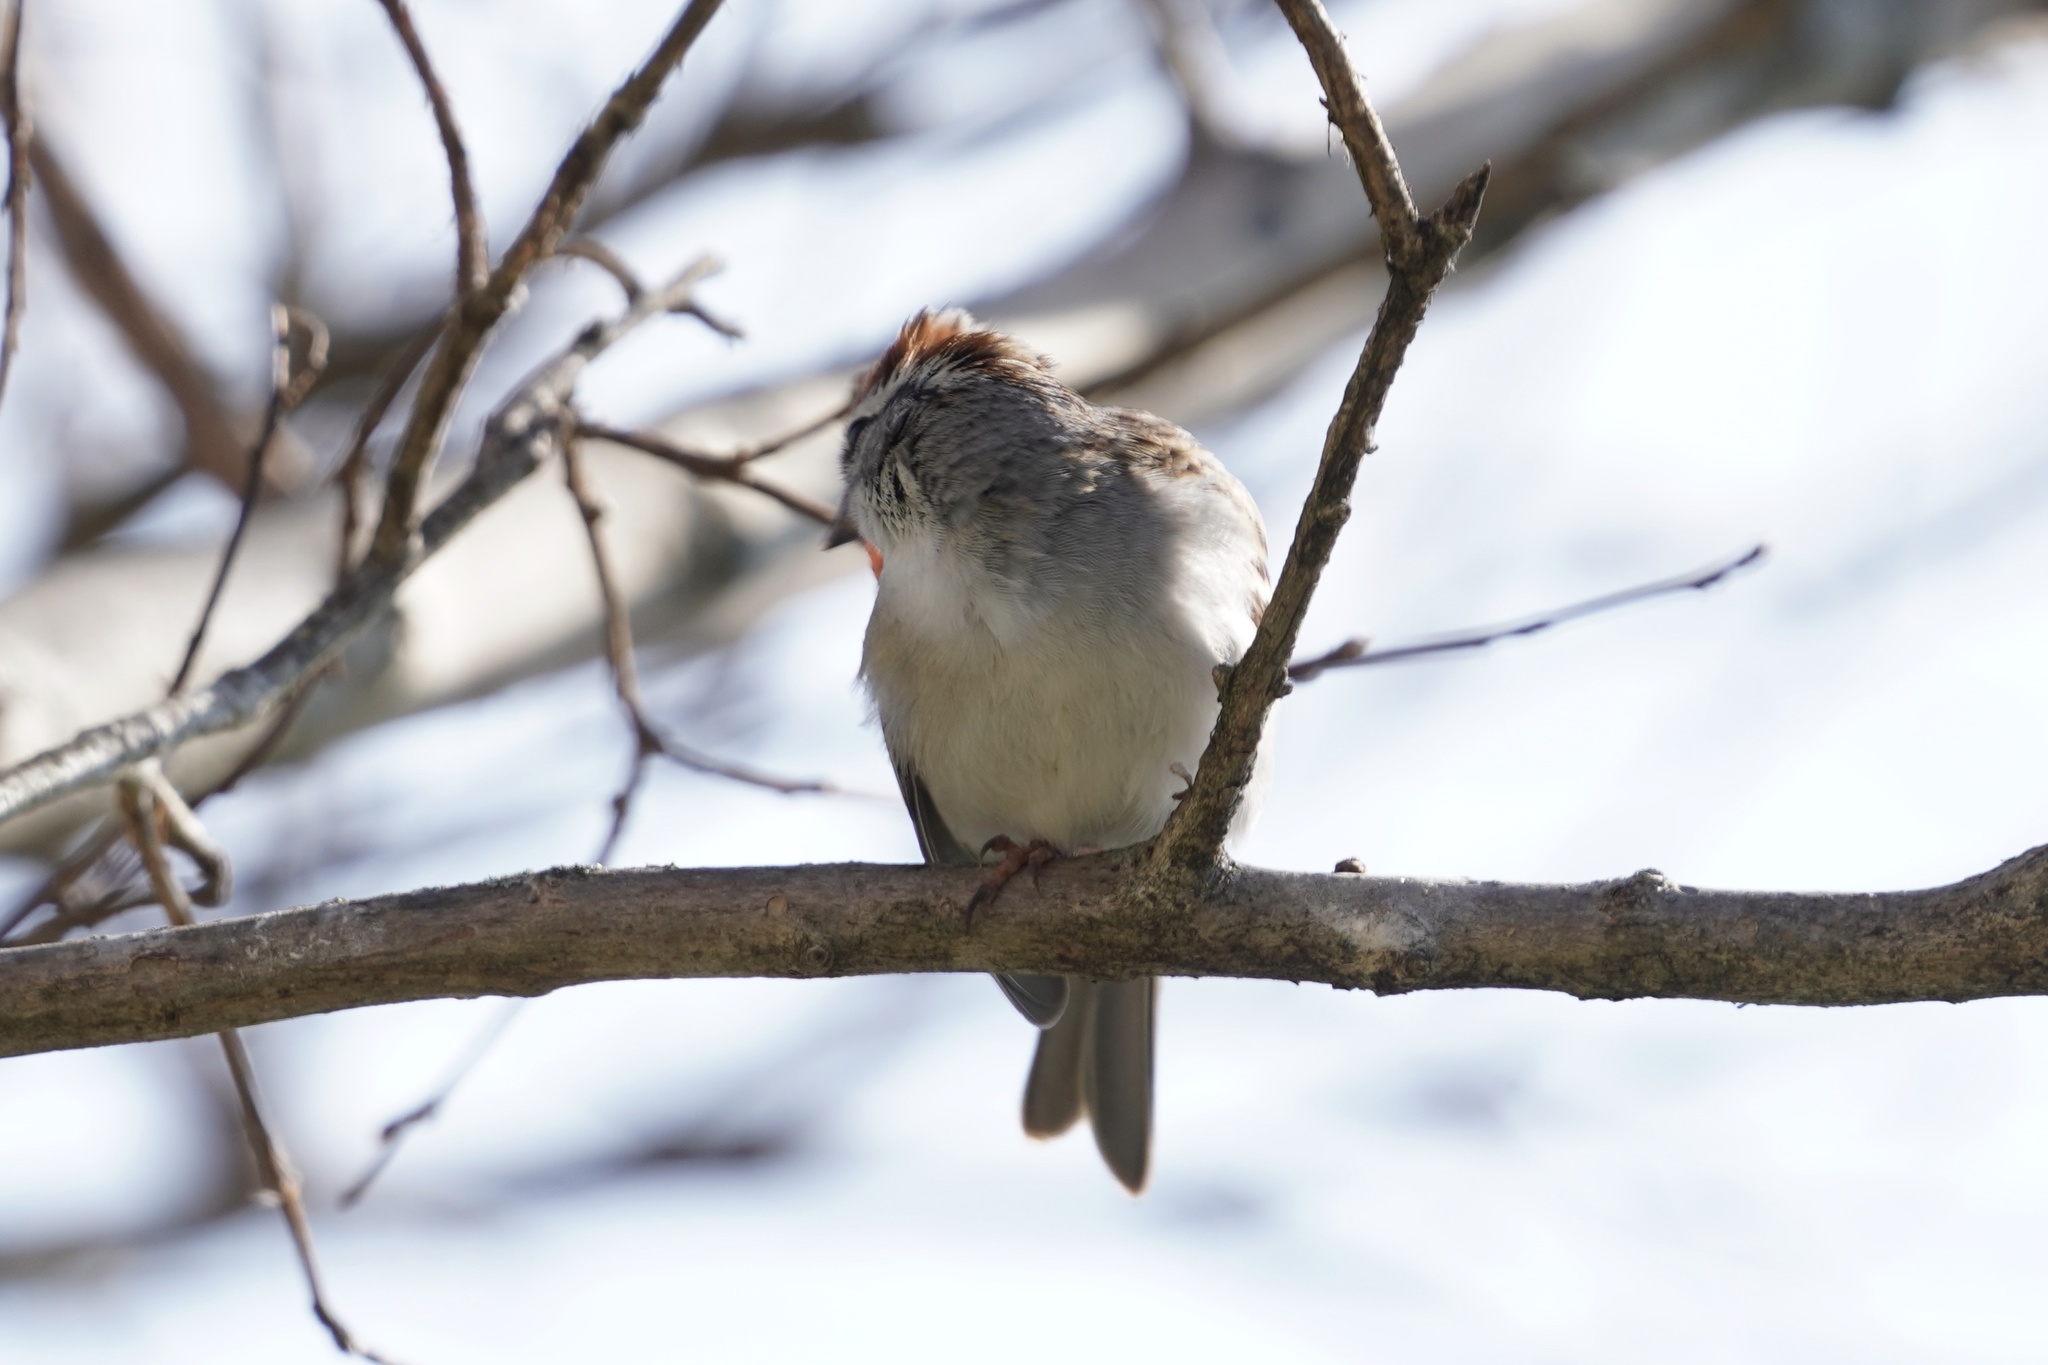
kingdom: Animalia
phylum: Chordata
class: Aves
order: Passeriformes
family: Passerellidae
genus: Spizella
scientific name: Spizella passerina
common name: Chipping sparrow
